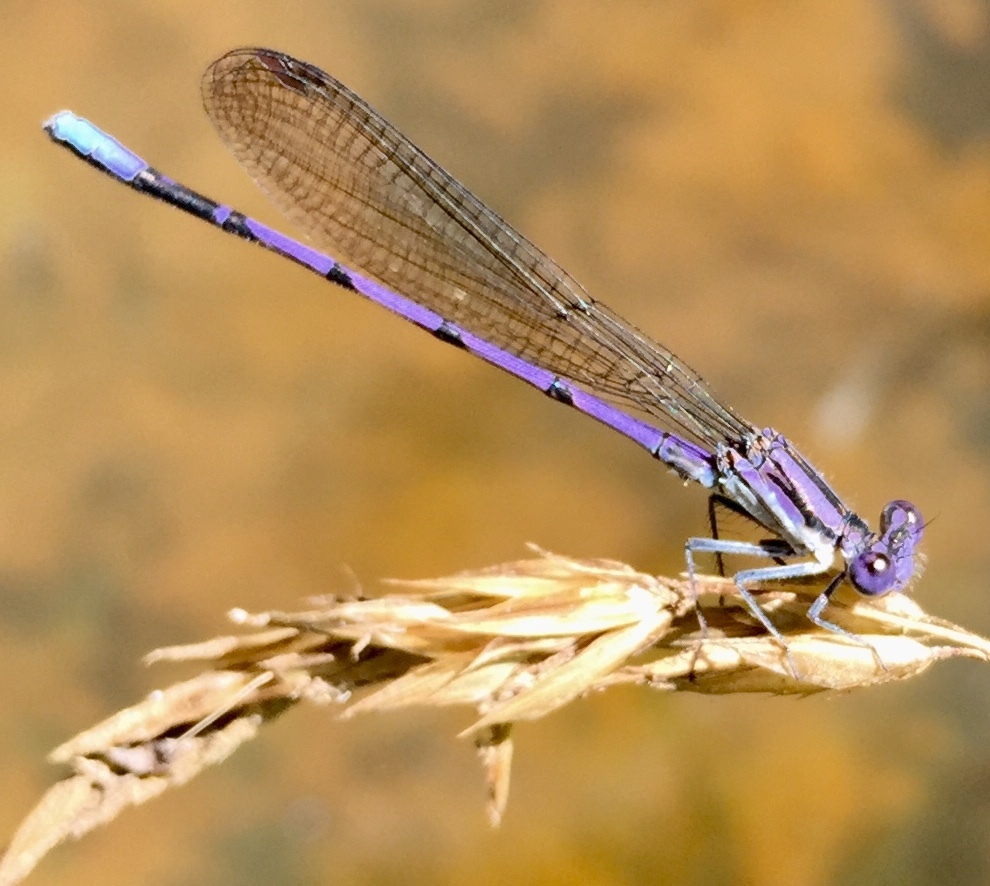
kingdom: Animalia
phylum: Arthropoda
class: Insecta
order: Odonata
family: Coenagrionidae
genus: Argia
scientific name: Argia fumipennis
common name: Variable dancer
